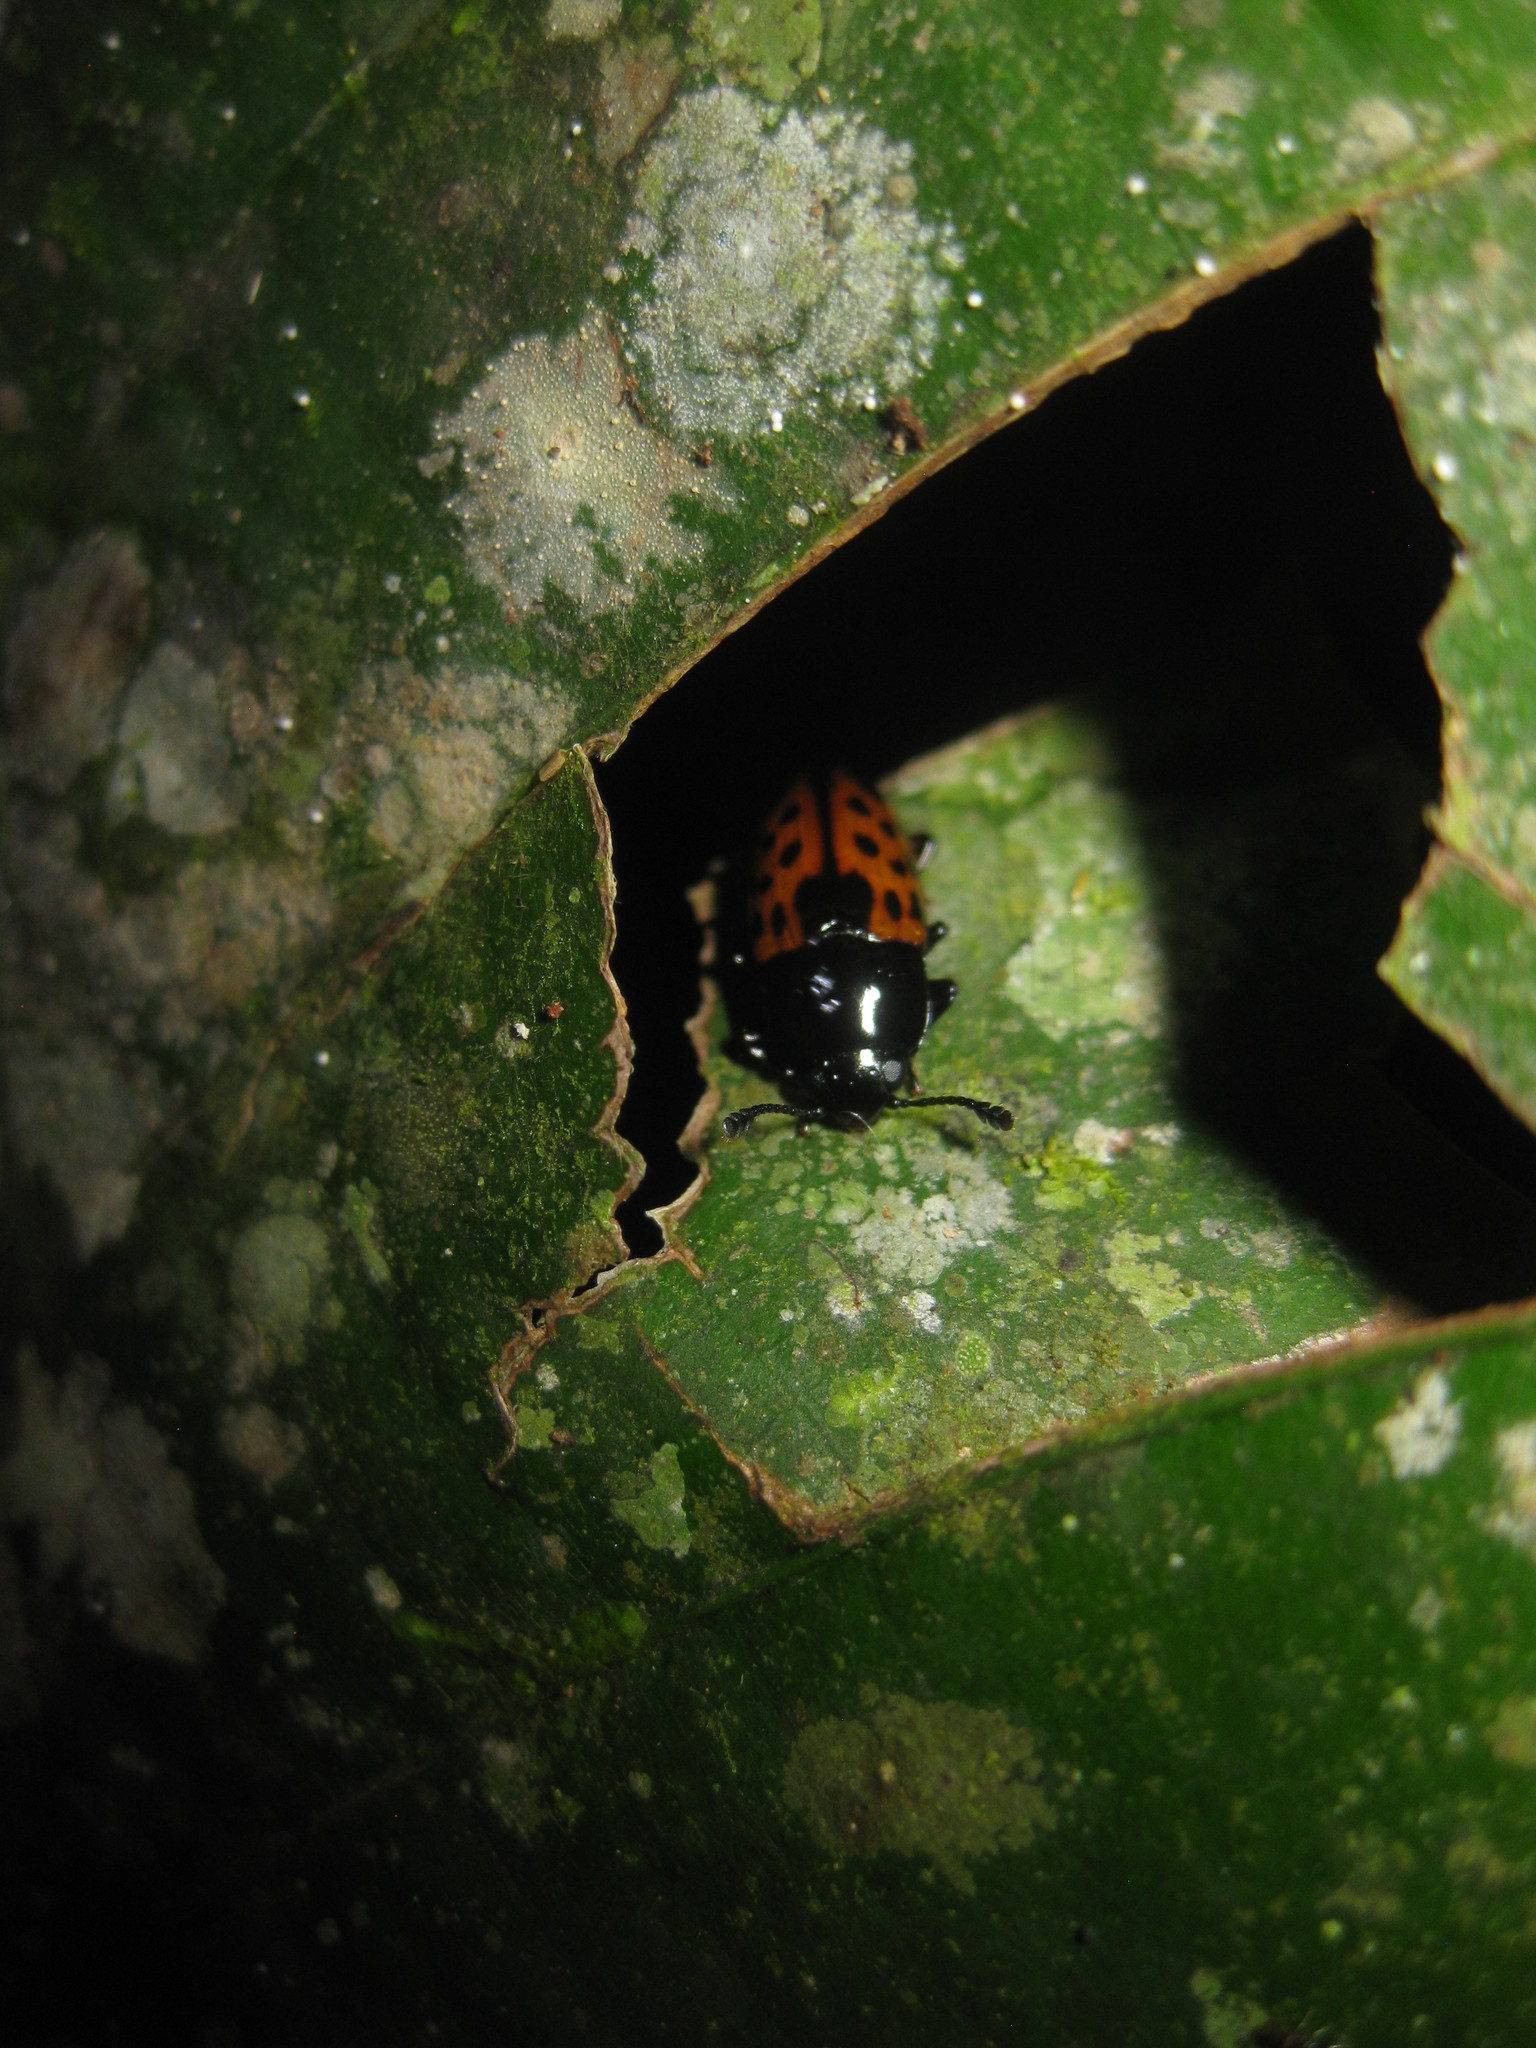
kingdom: Animalia
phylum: Arthropoda
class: Insecta
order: Coleoptera
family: Erotylidae
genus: Pselaphacus
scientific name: Pselaphacus signatus
